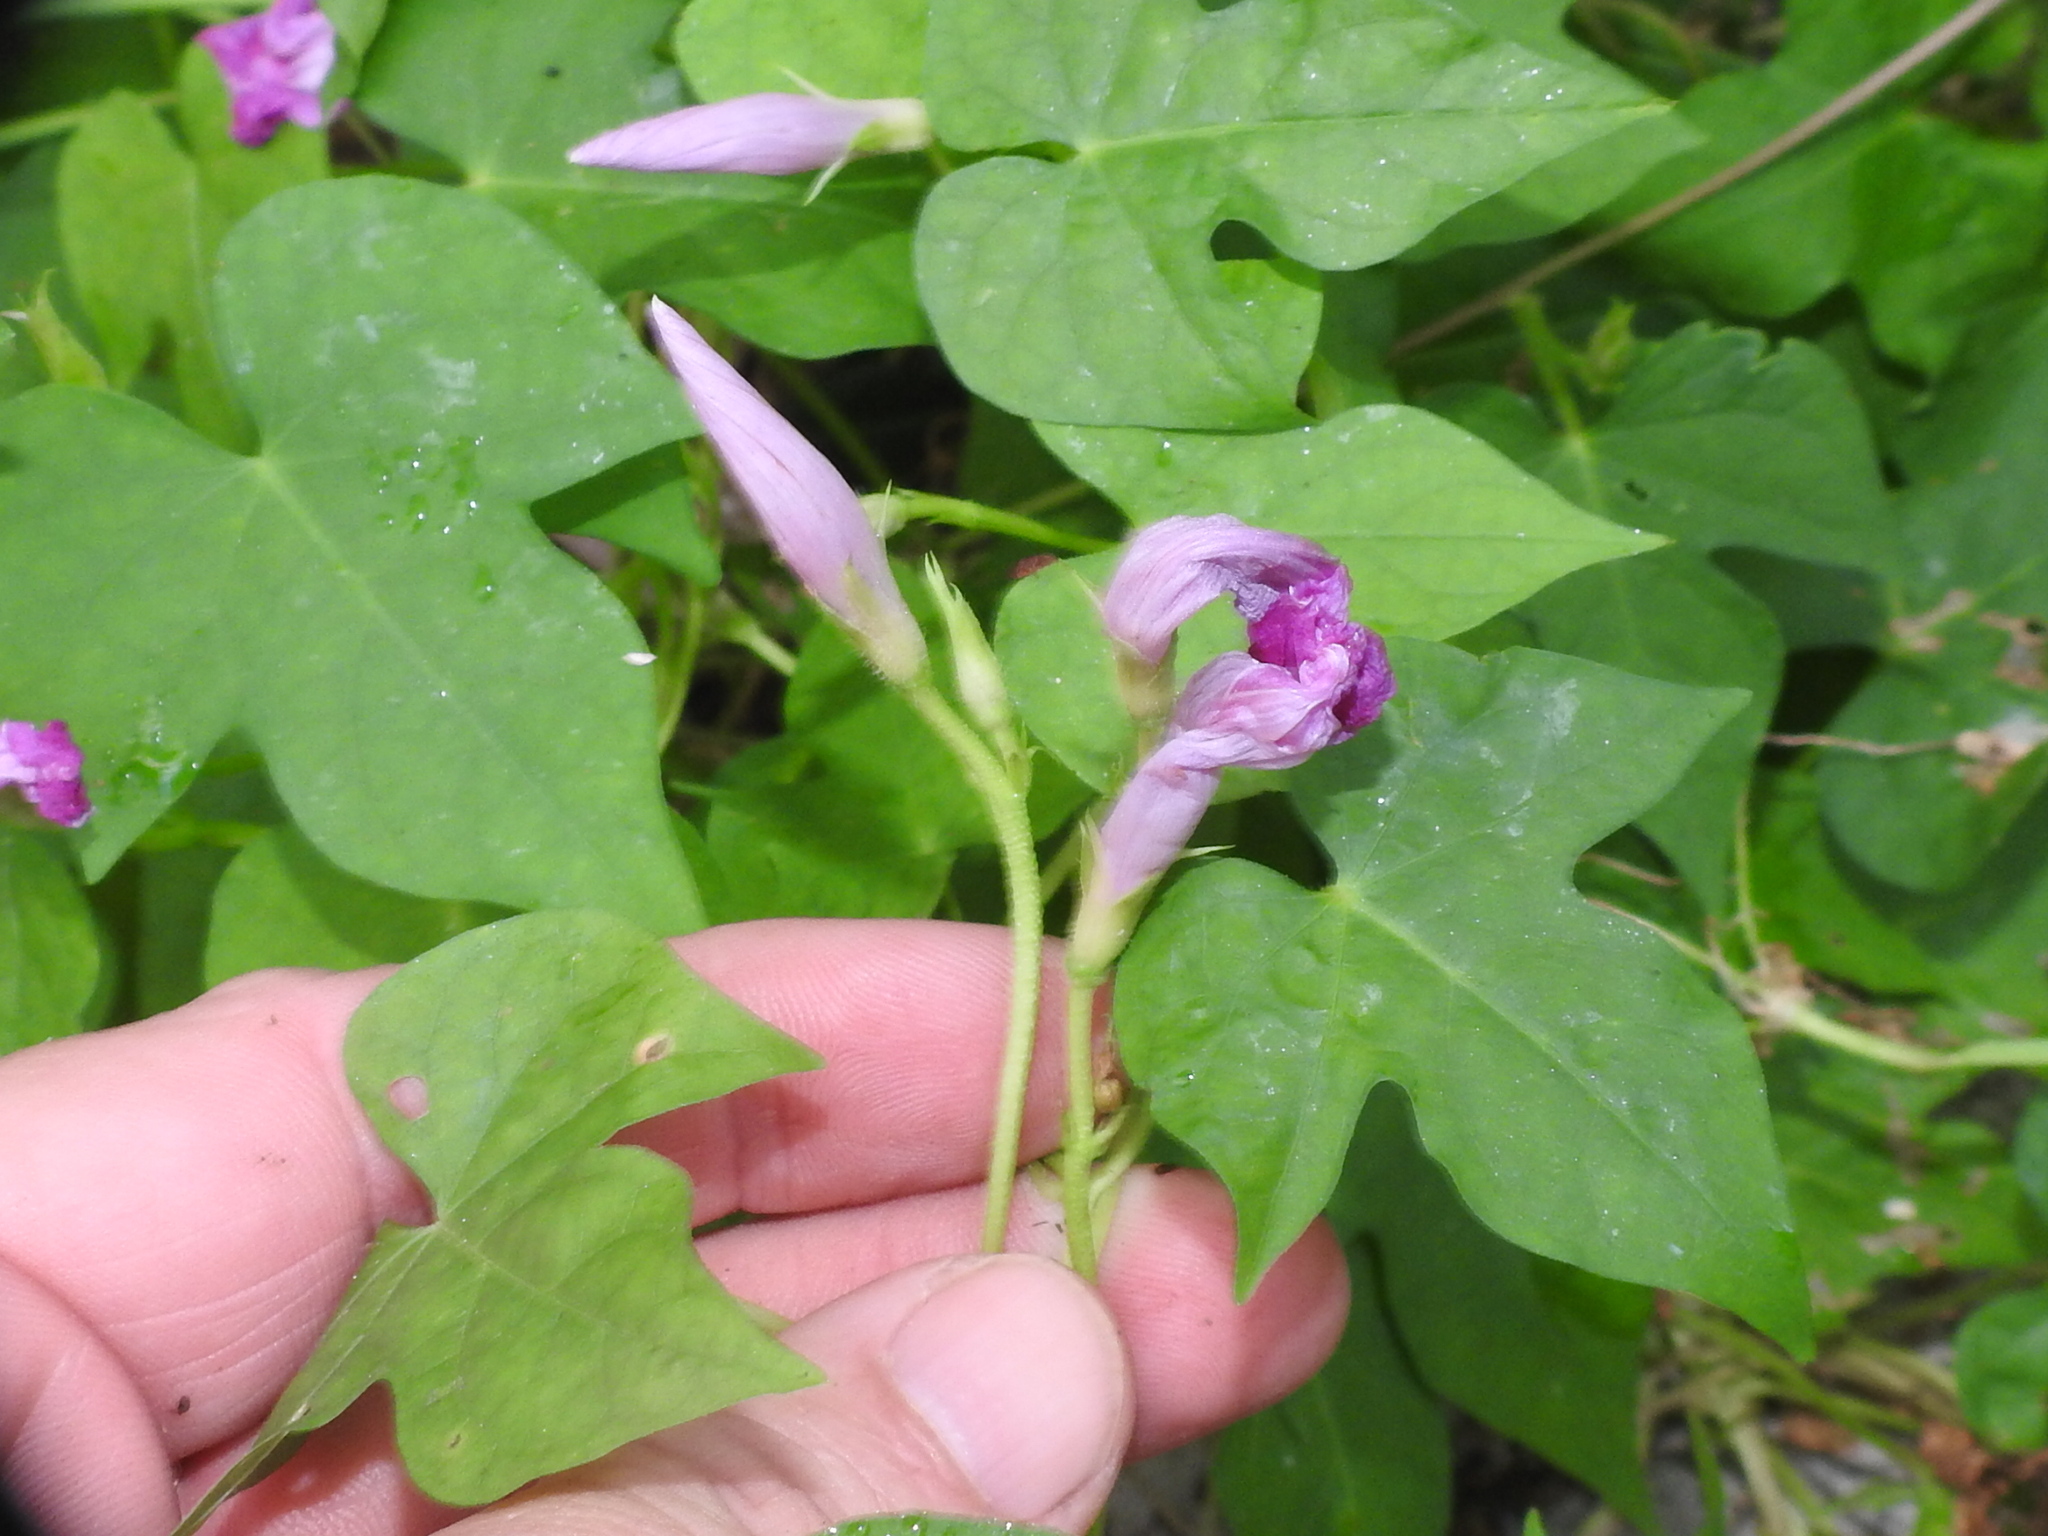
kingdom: Plantae
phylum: Tracheophyta
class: Magnoliopsida
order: Solanales
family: Convolvulaceae
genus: Ipomoea
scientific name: Ipomoea cordatotriloba
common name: Cotton morning glory
